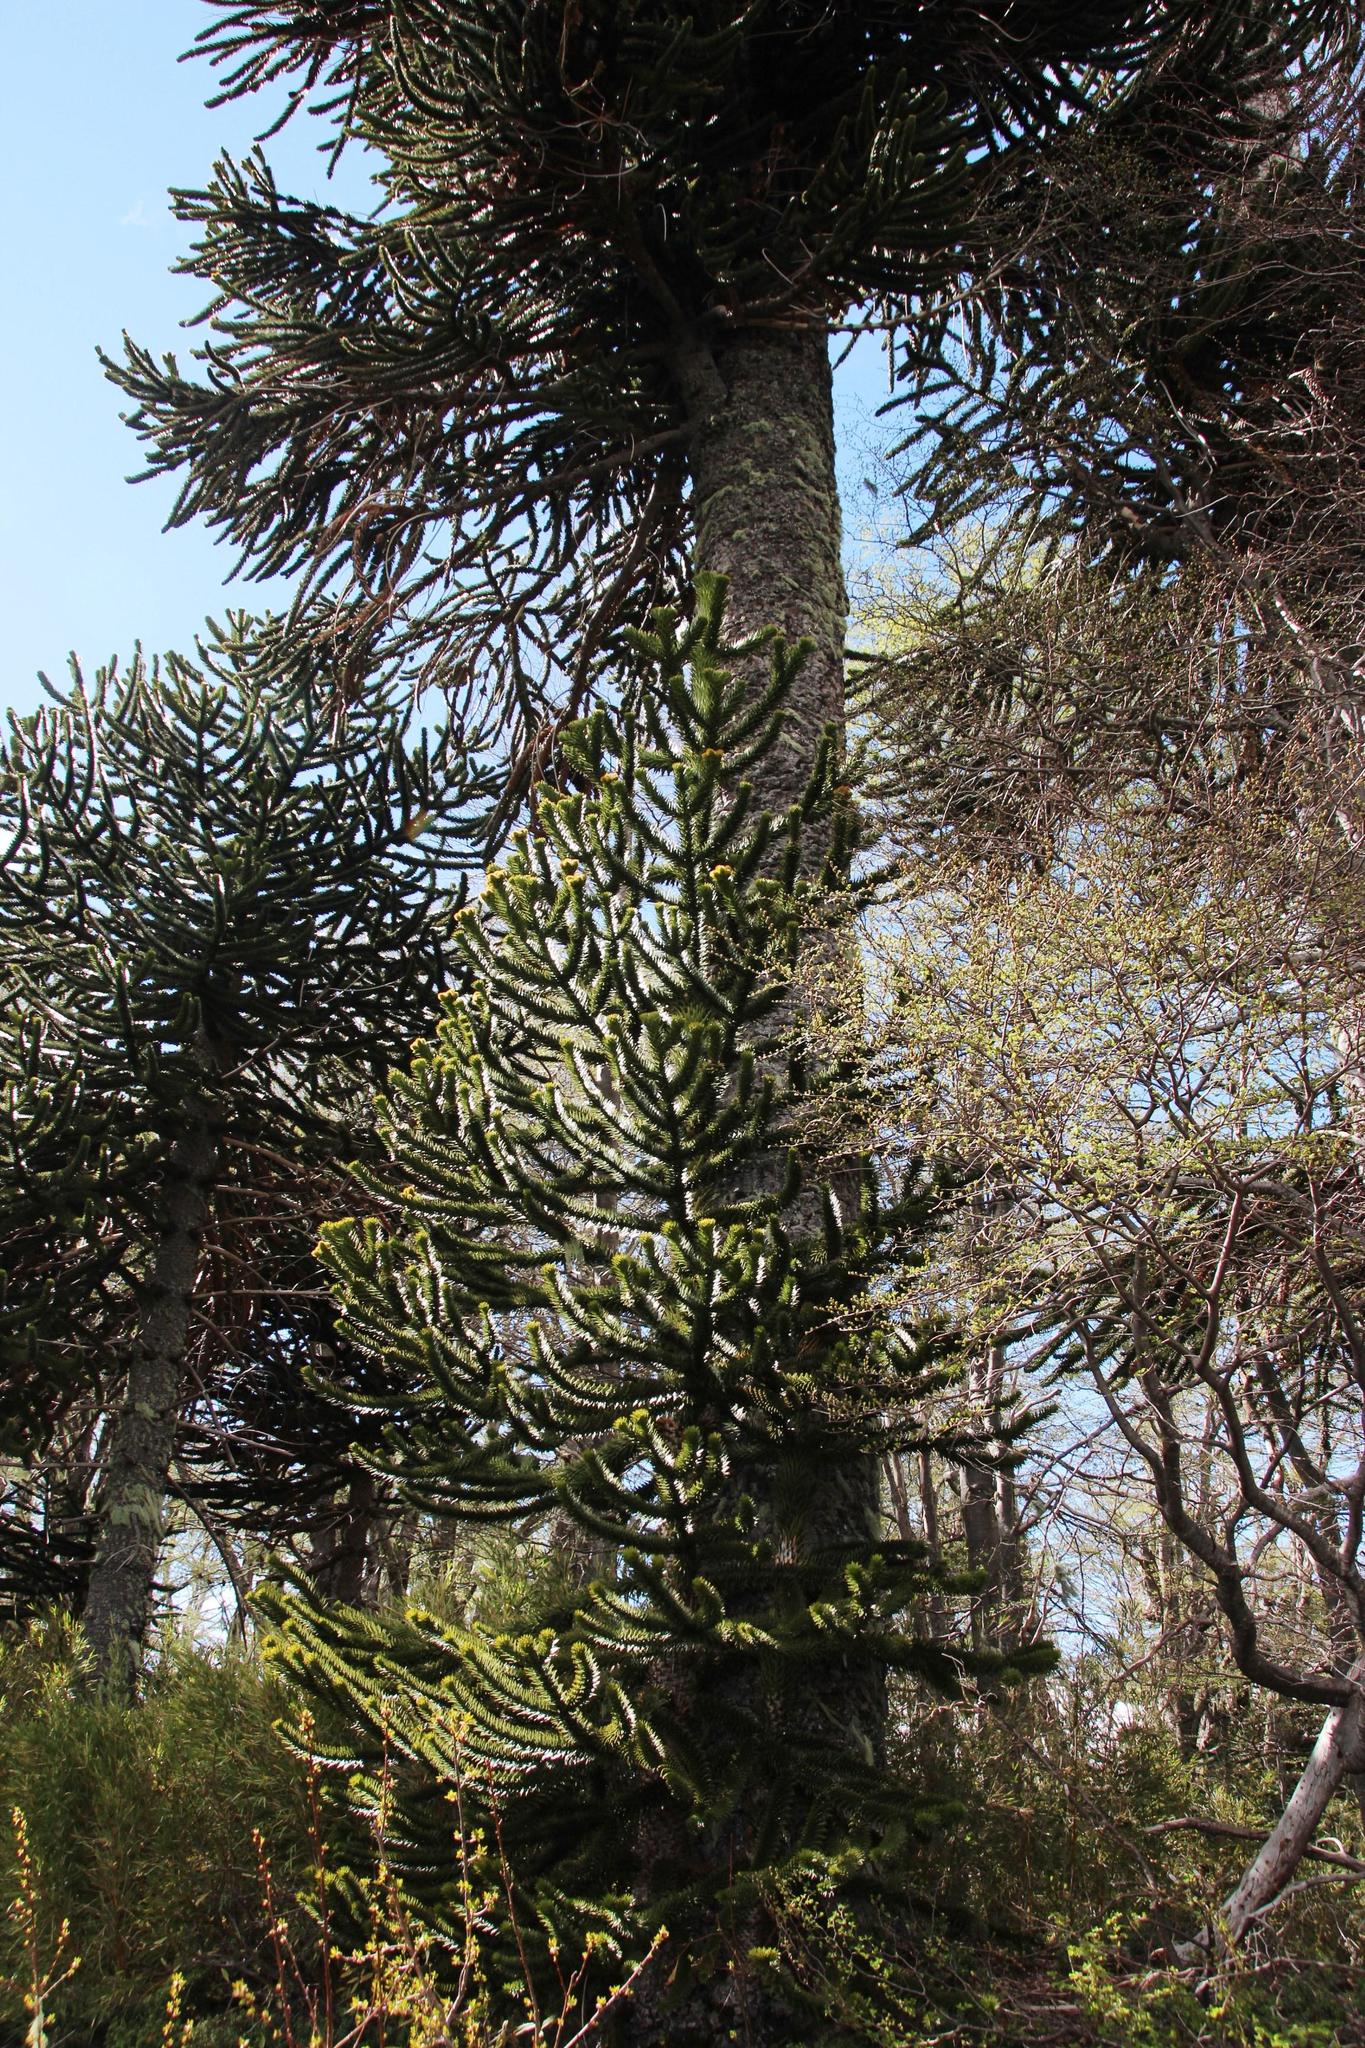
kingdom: Plantae
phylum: Tracheophyta
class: Pinopsida
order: Pinales
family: Araucariaceae
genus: Araucaria
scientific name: Araucaria araucana
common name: Monkey-puzzle
